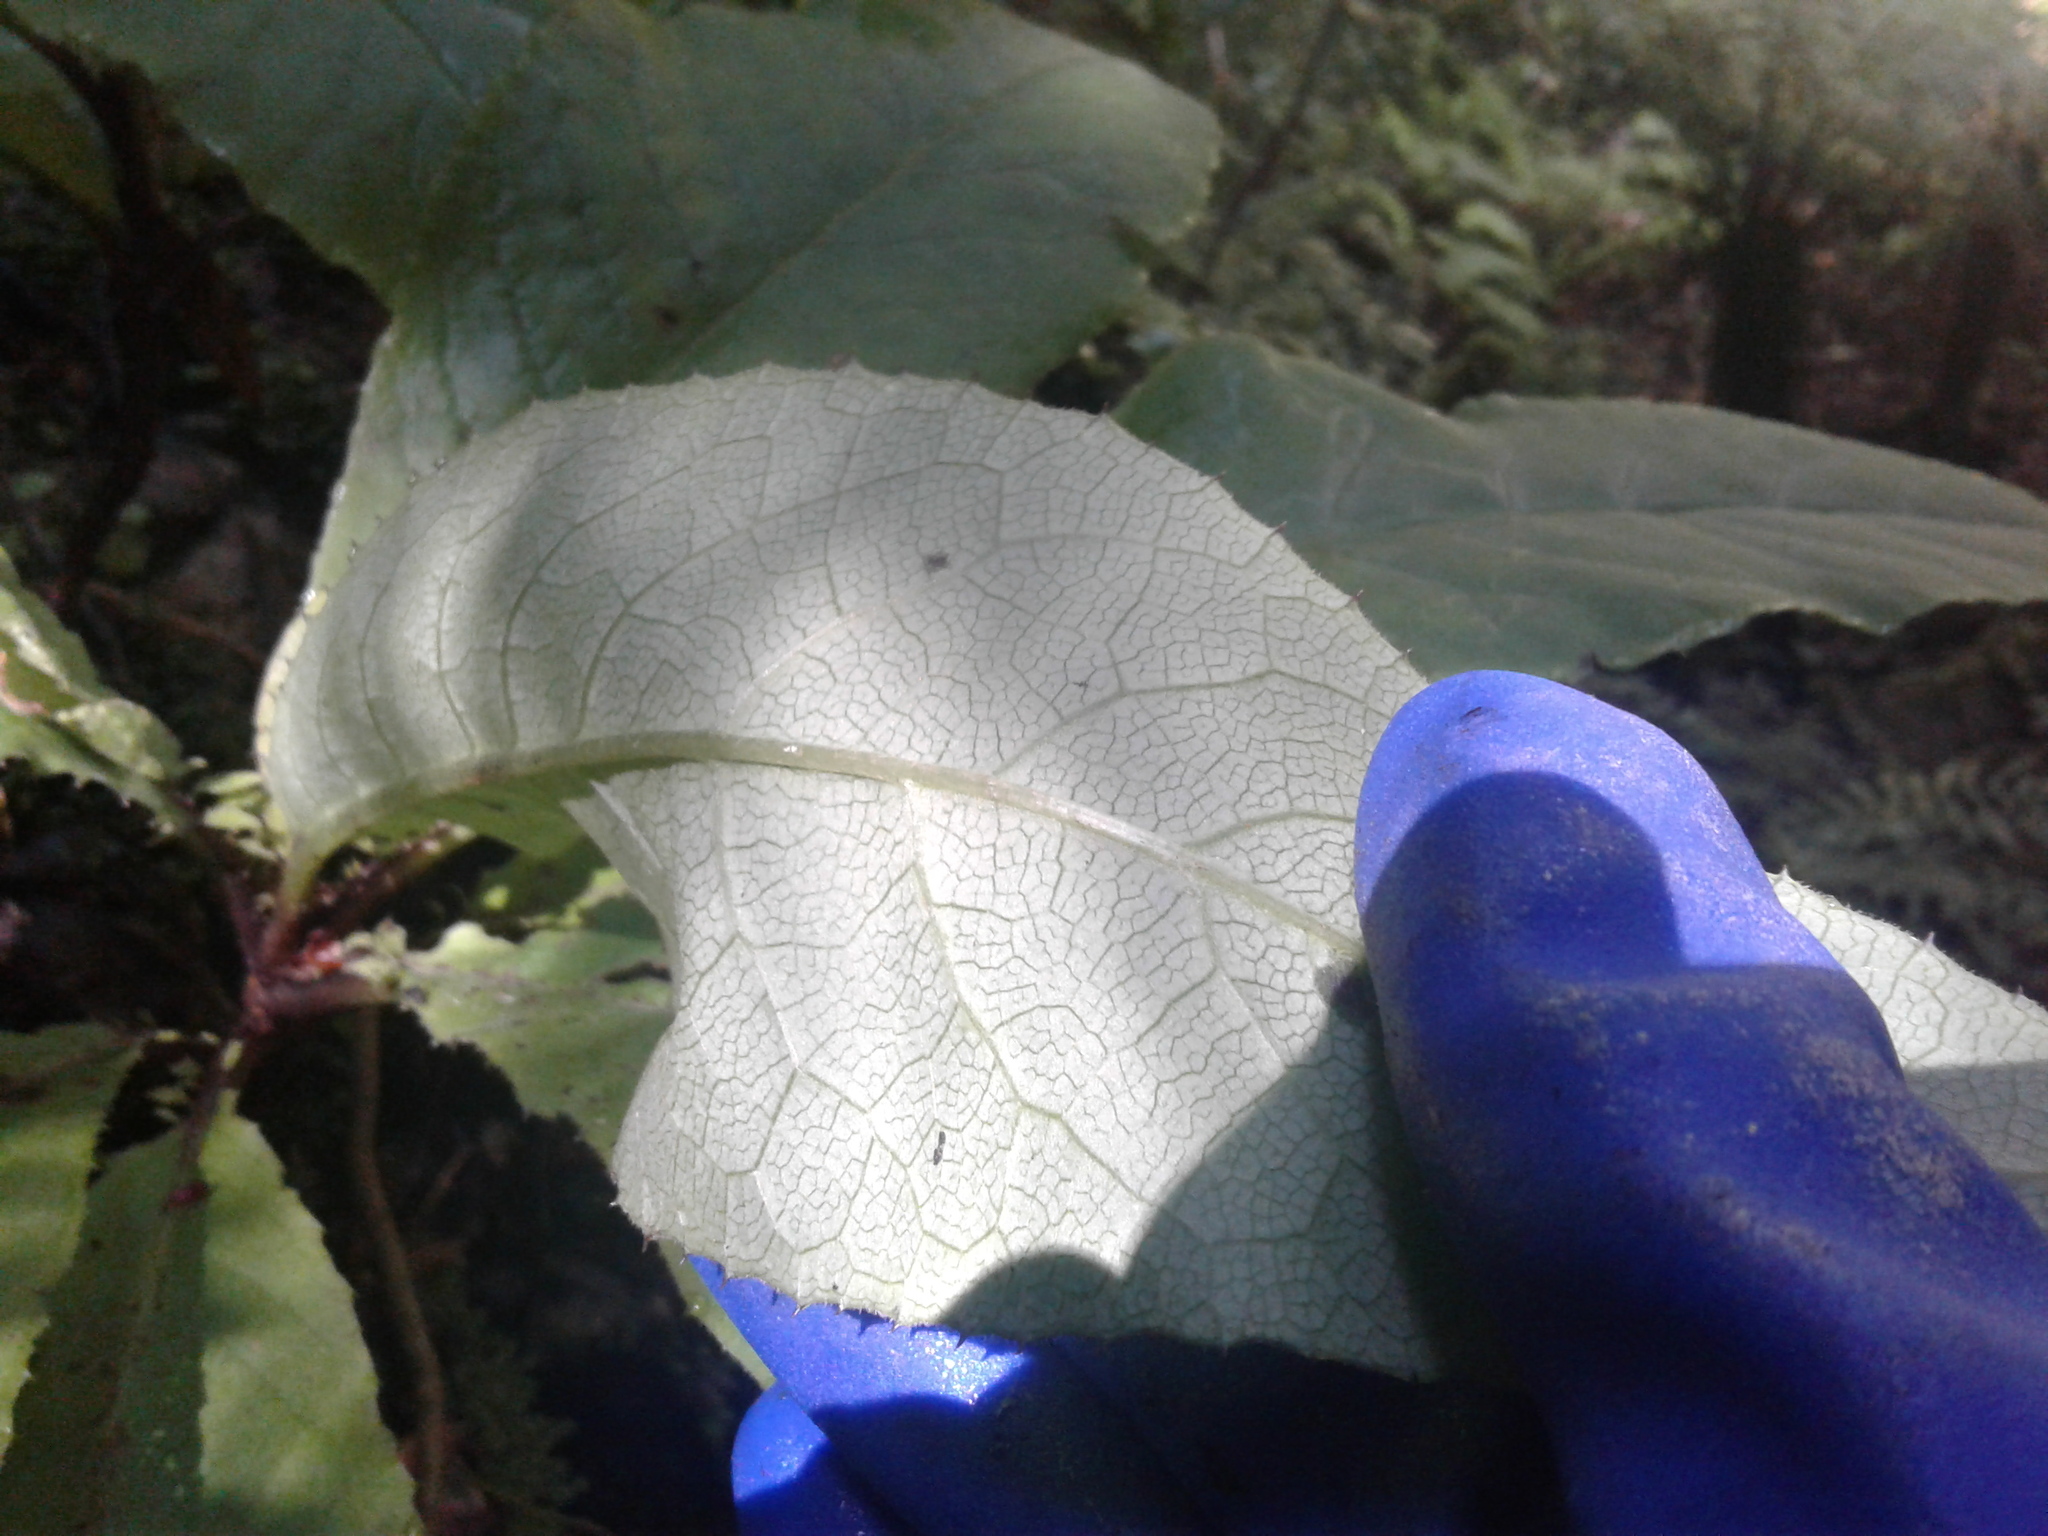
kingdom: Plantae
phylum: Tracheophyta
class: Magnoliopsida
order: Asterales
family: Asteraceae
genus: Brachyglottis
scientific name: Brachyglottis hectorii
